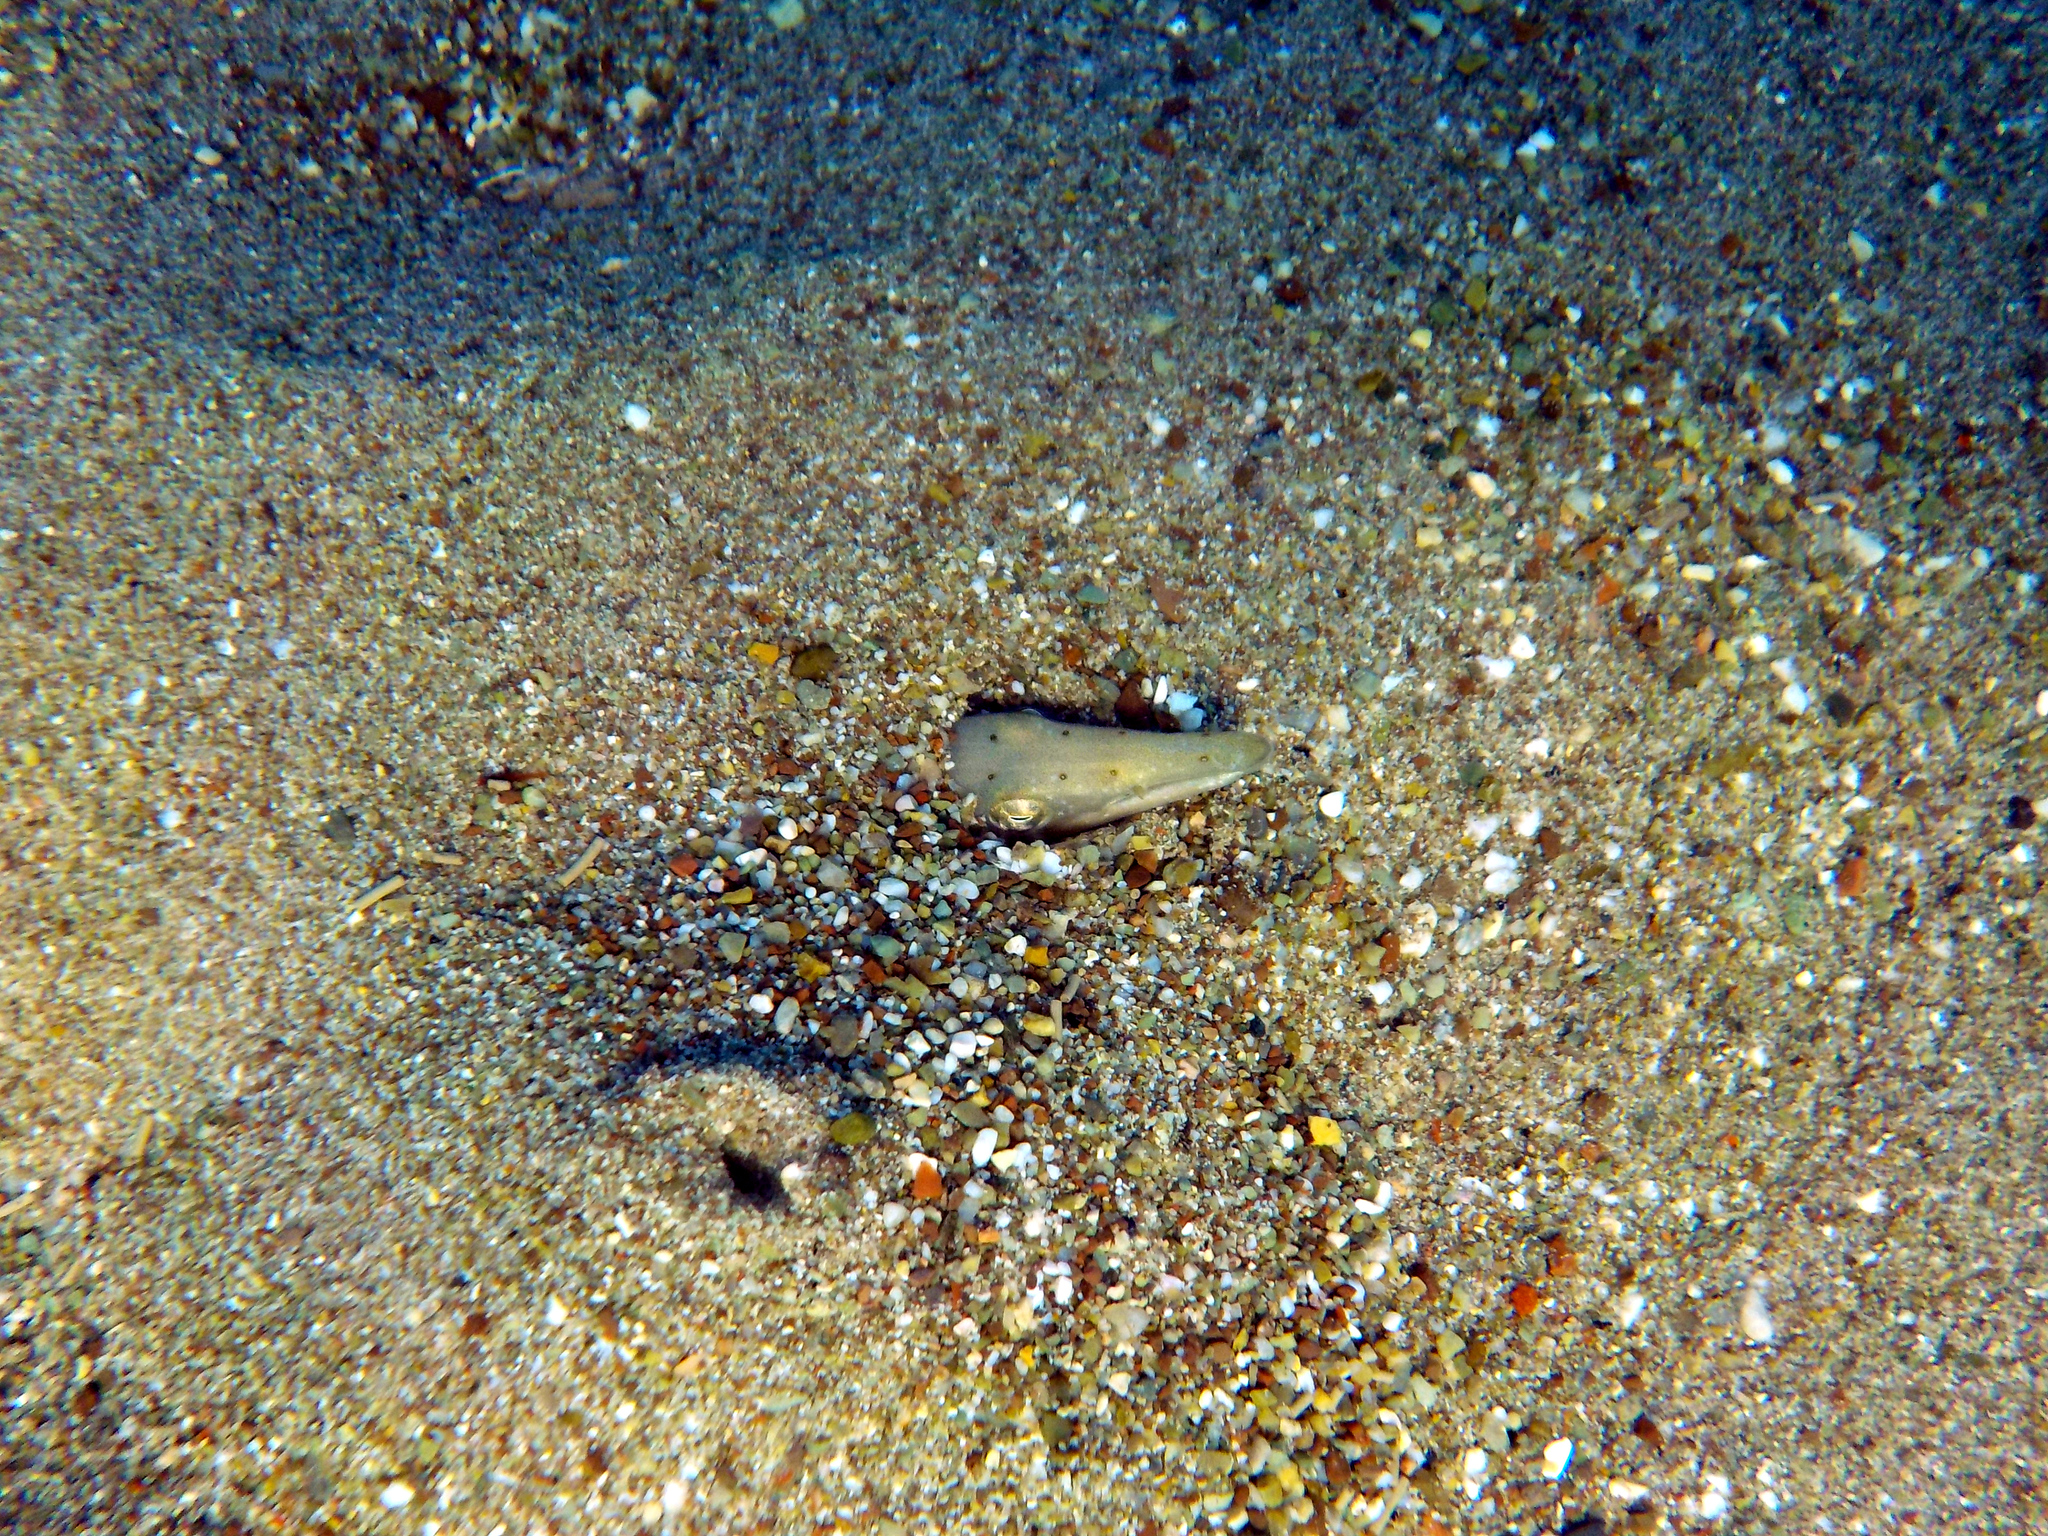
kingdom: Animalia
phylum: Chordata
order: Anguilliformes
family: Ophichthidae
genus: Ophisurus
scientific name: Ophisurus serpens
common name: Serpent eel
